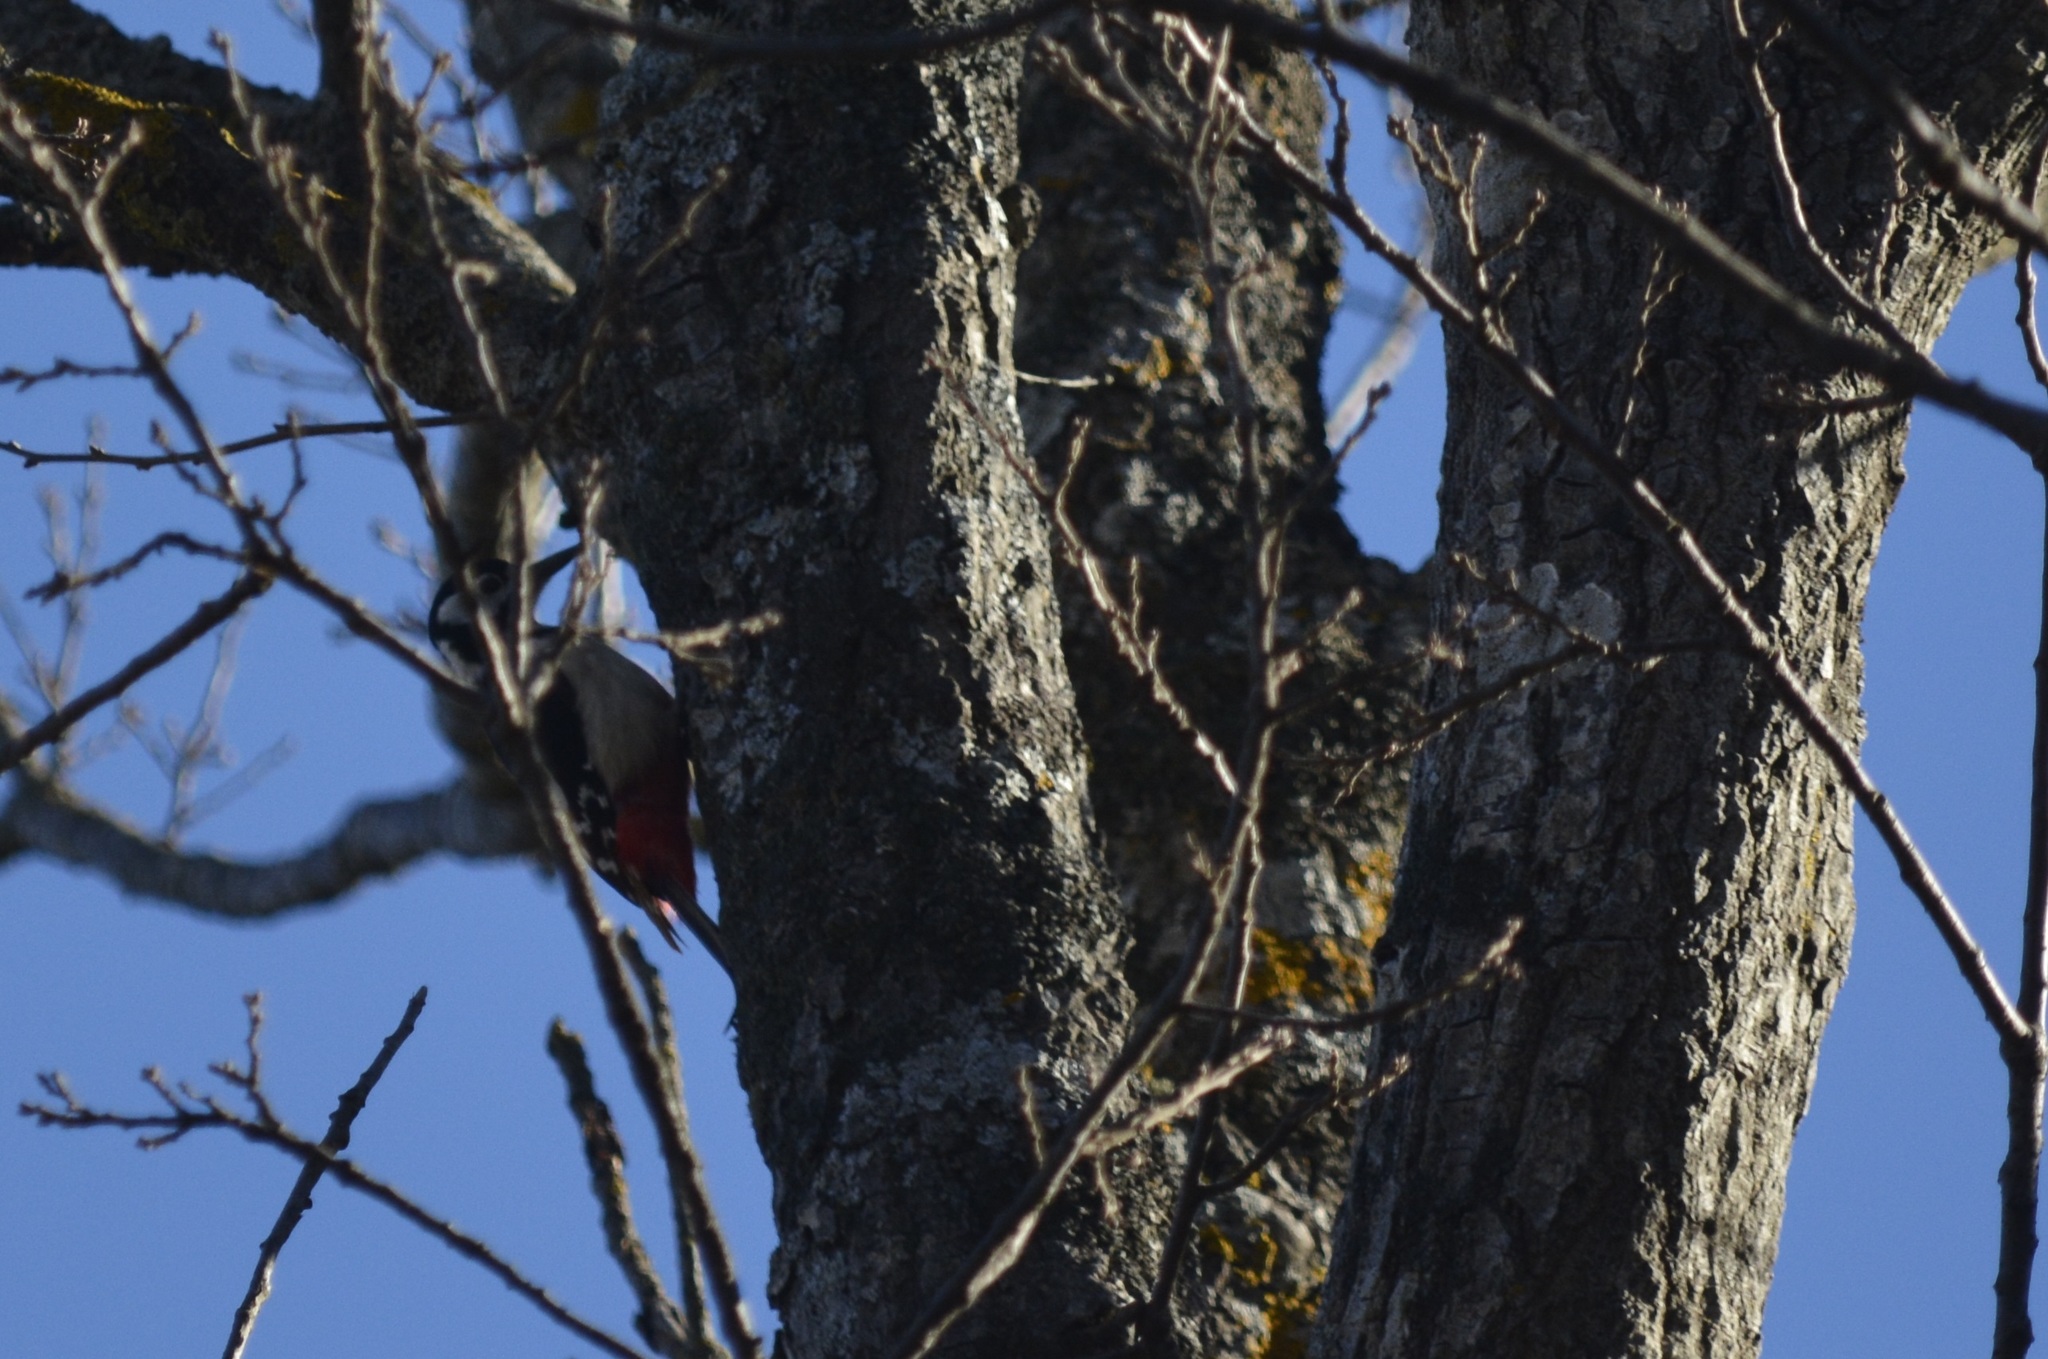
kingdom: Animalia
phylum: Chordata
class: Aves
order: Piciformes
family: Picidae
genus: Dendrocopos
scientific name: Dendrocopos major
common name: Great spotted woodpecker
